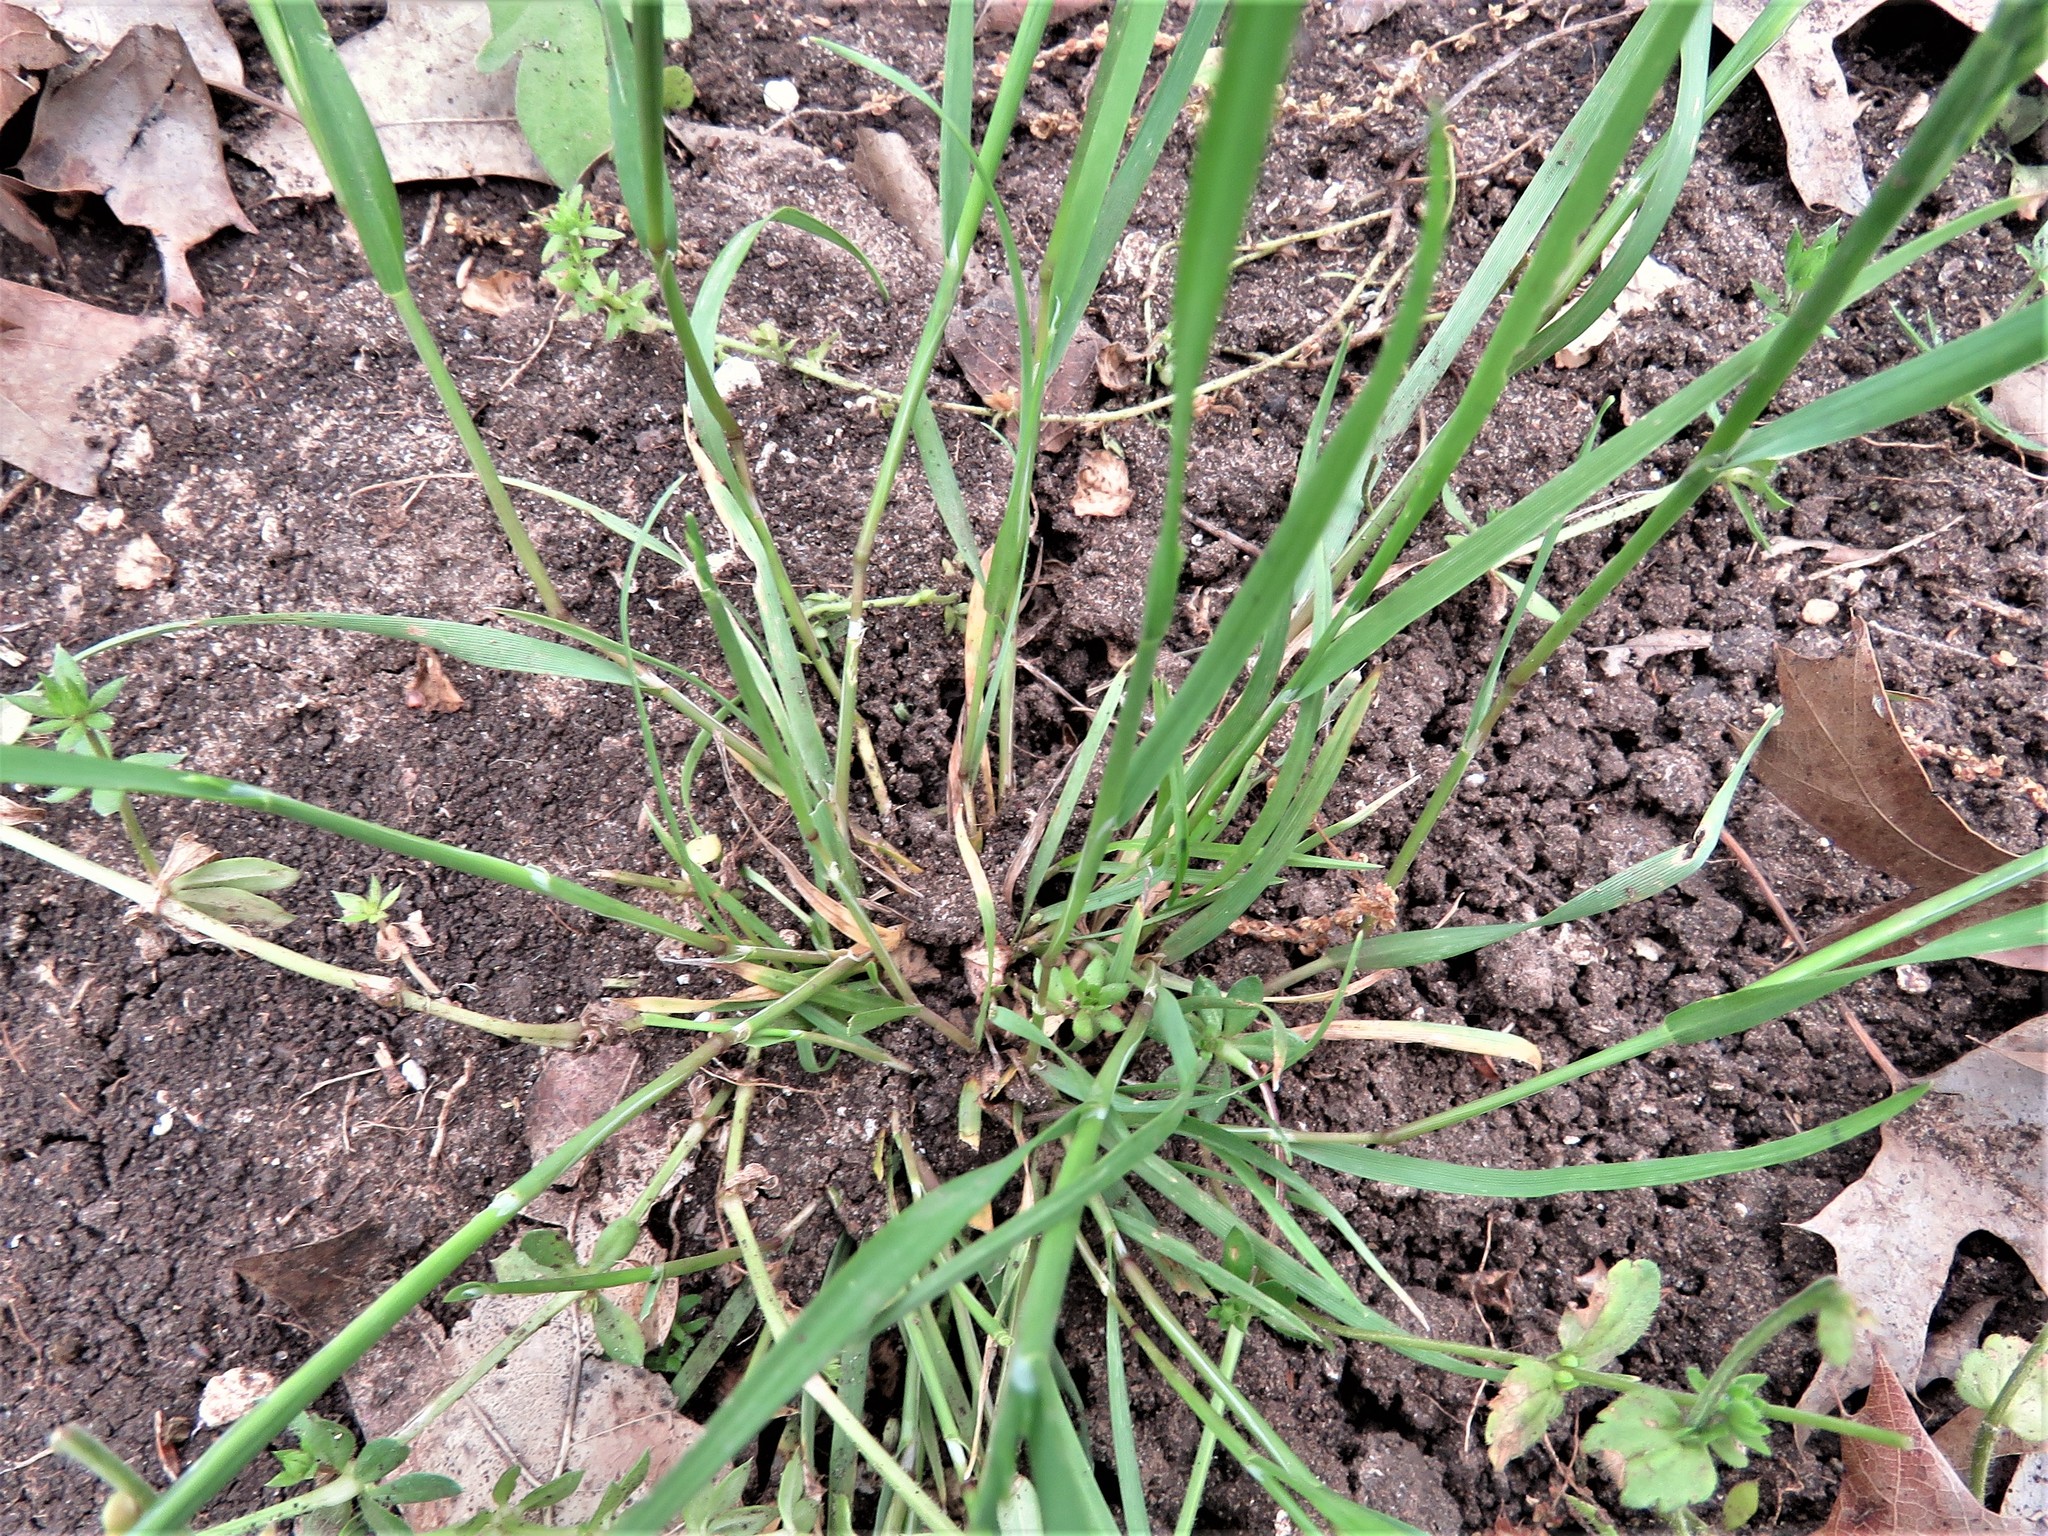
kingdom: Plantae
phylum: Tracheophyta
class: Liliopsida
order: Poales
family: Poaceae
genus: Catapodium
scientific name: Catapodium rigidum
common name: Fern-grass
